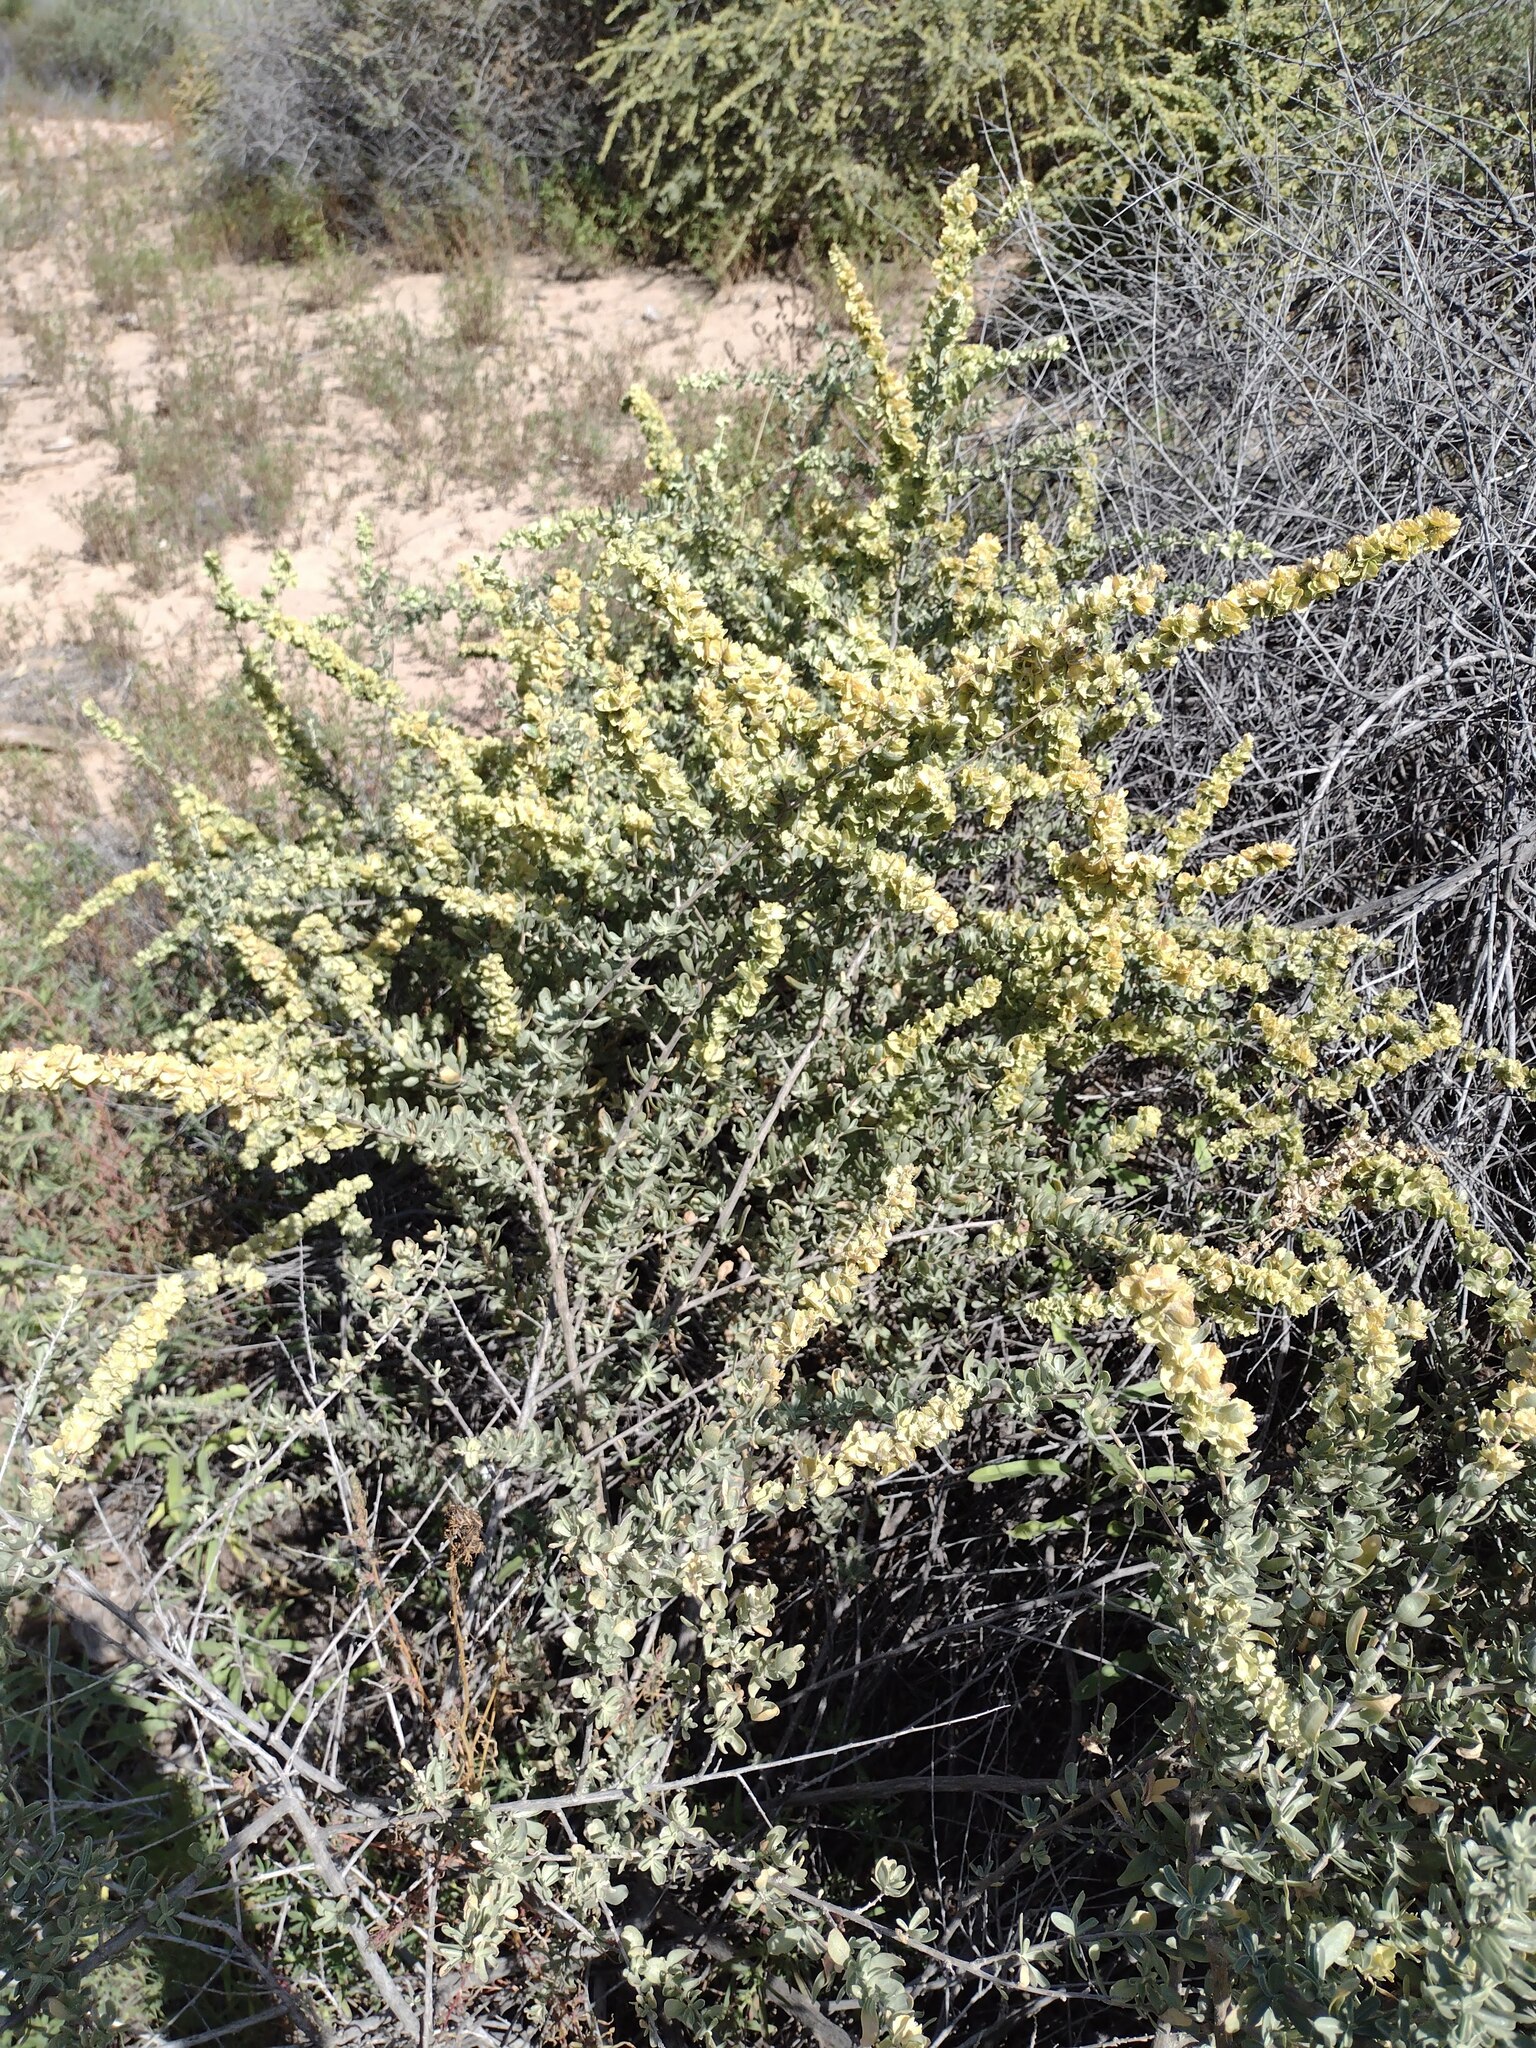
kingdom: Plantae
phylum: Tracheophyta
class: Magnoliopsida
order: Caryophyllales
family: Amaranthaceae
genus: Atriplex
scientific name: Atriplex canescens
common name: Four-wing saltbush
